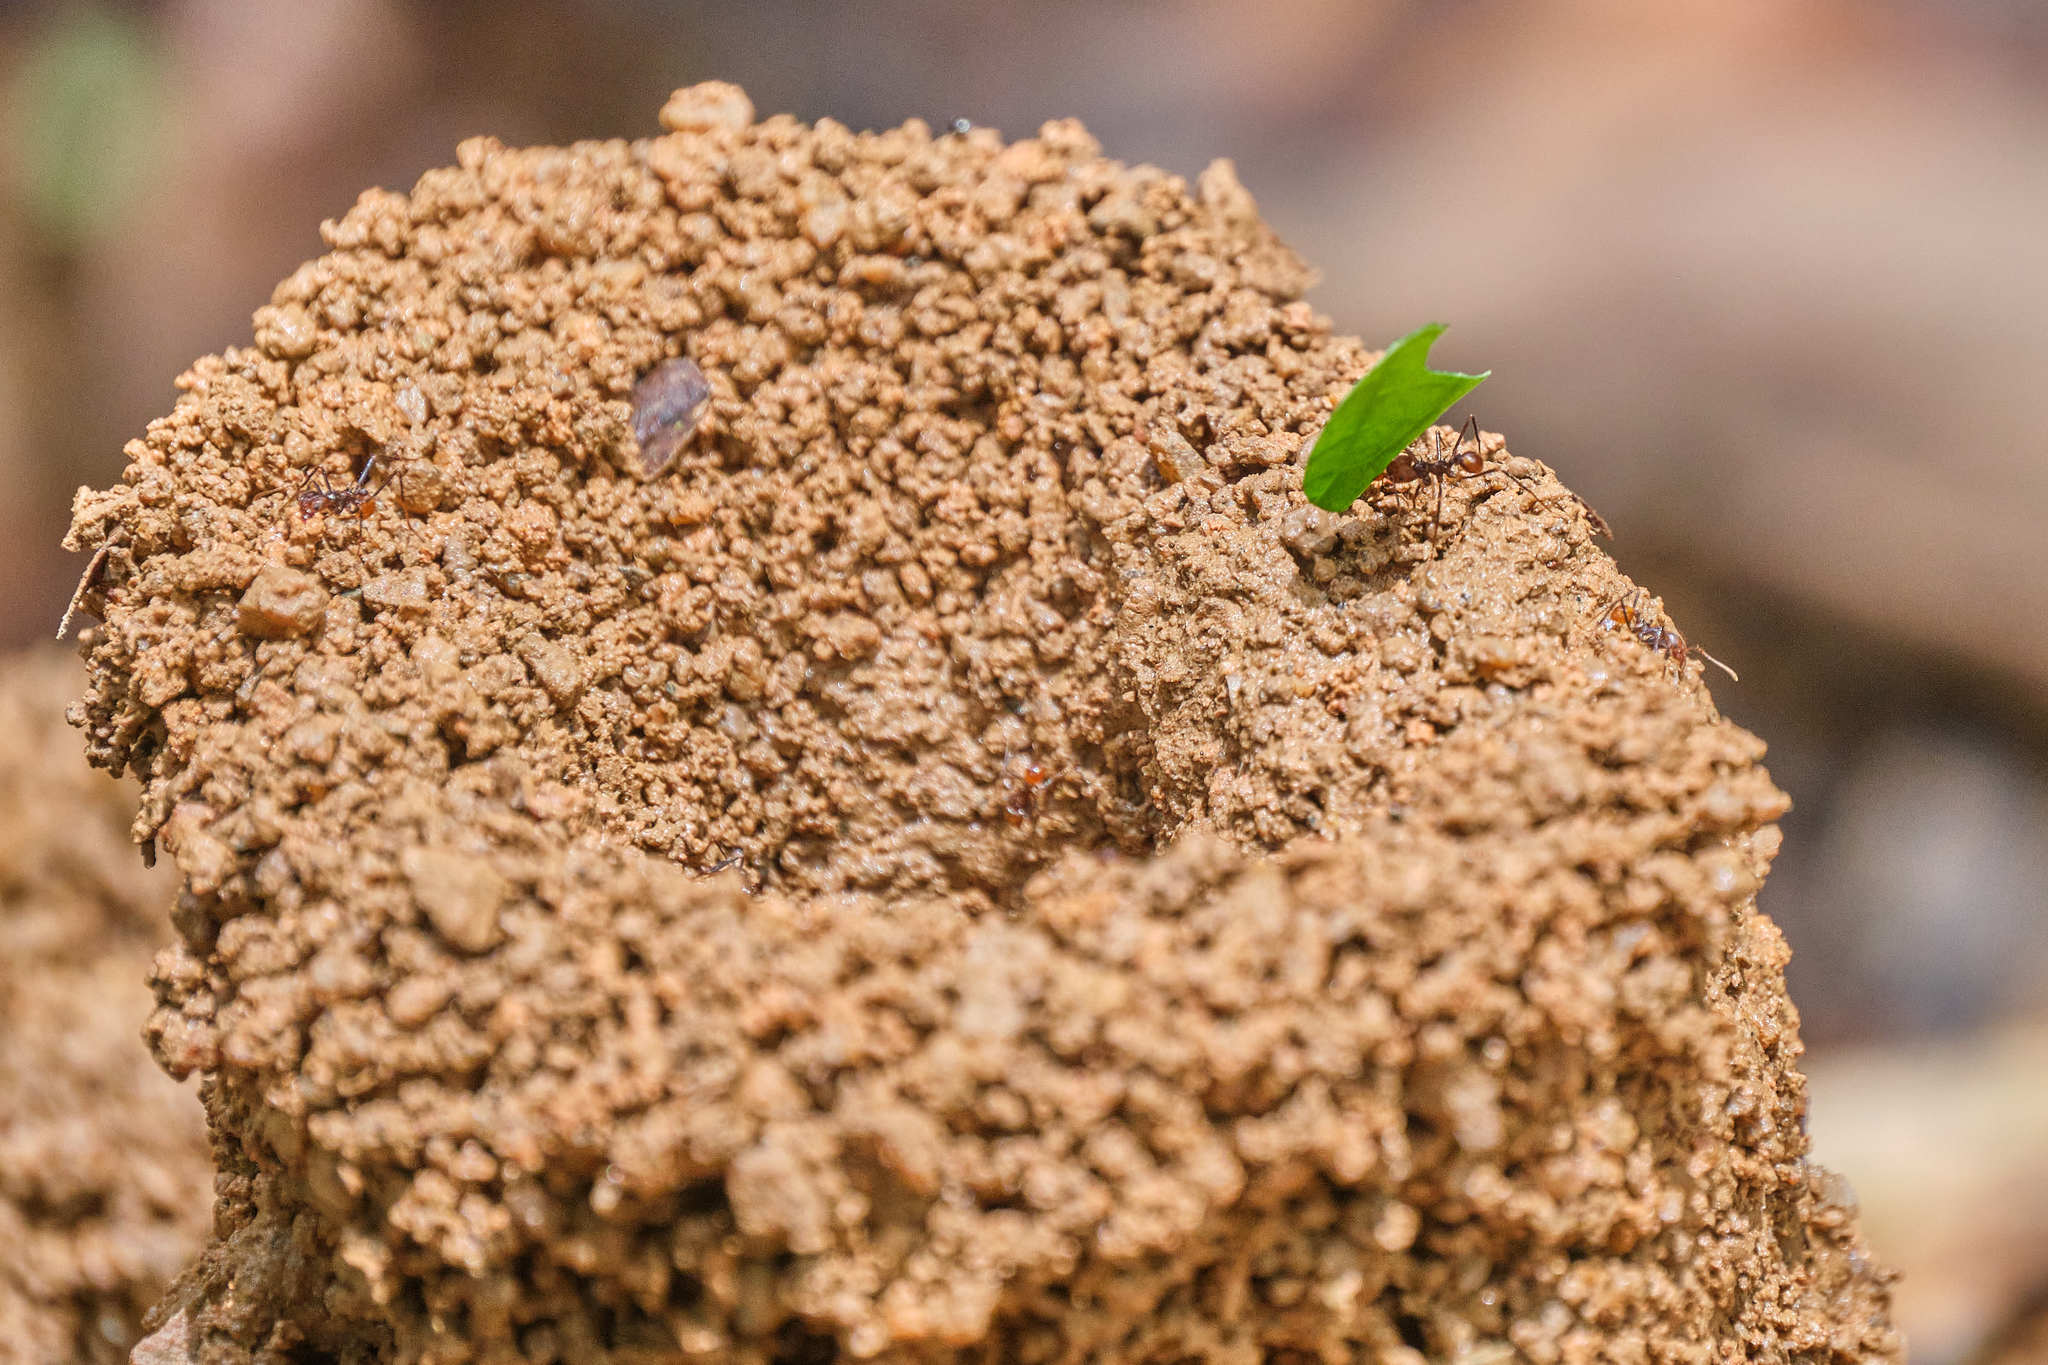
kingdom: Animalia
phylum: Arthropoda
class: Insecta
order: Hymenoptera
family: Formicidae
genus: Atta
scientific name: Atta cephalotes
